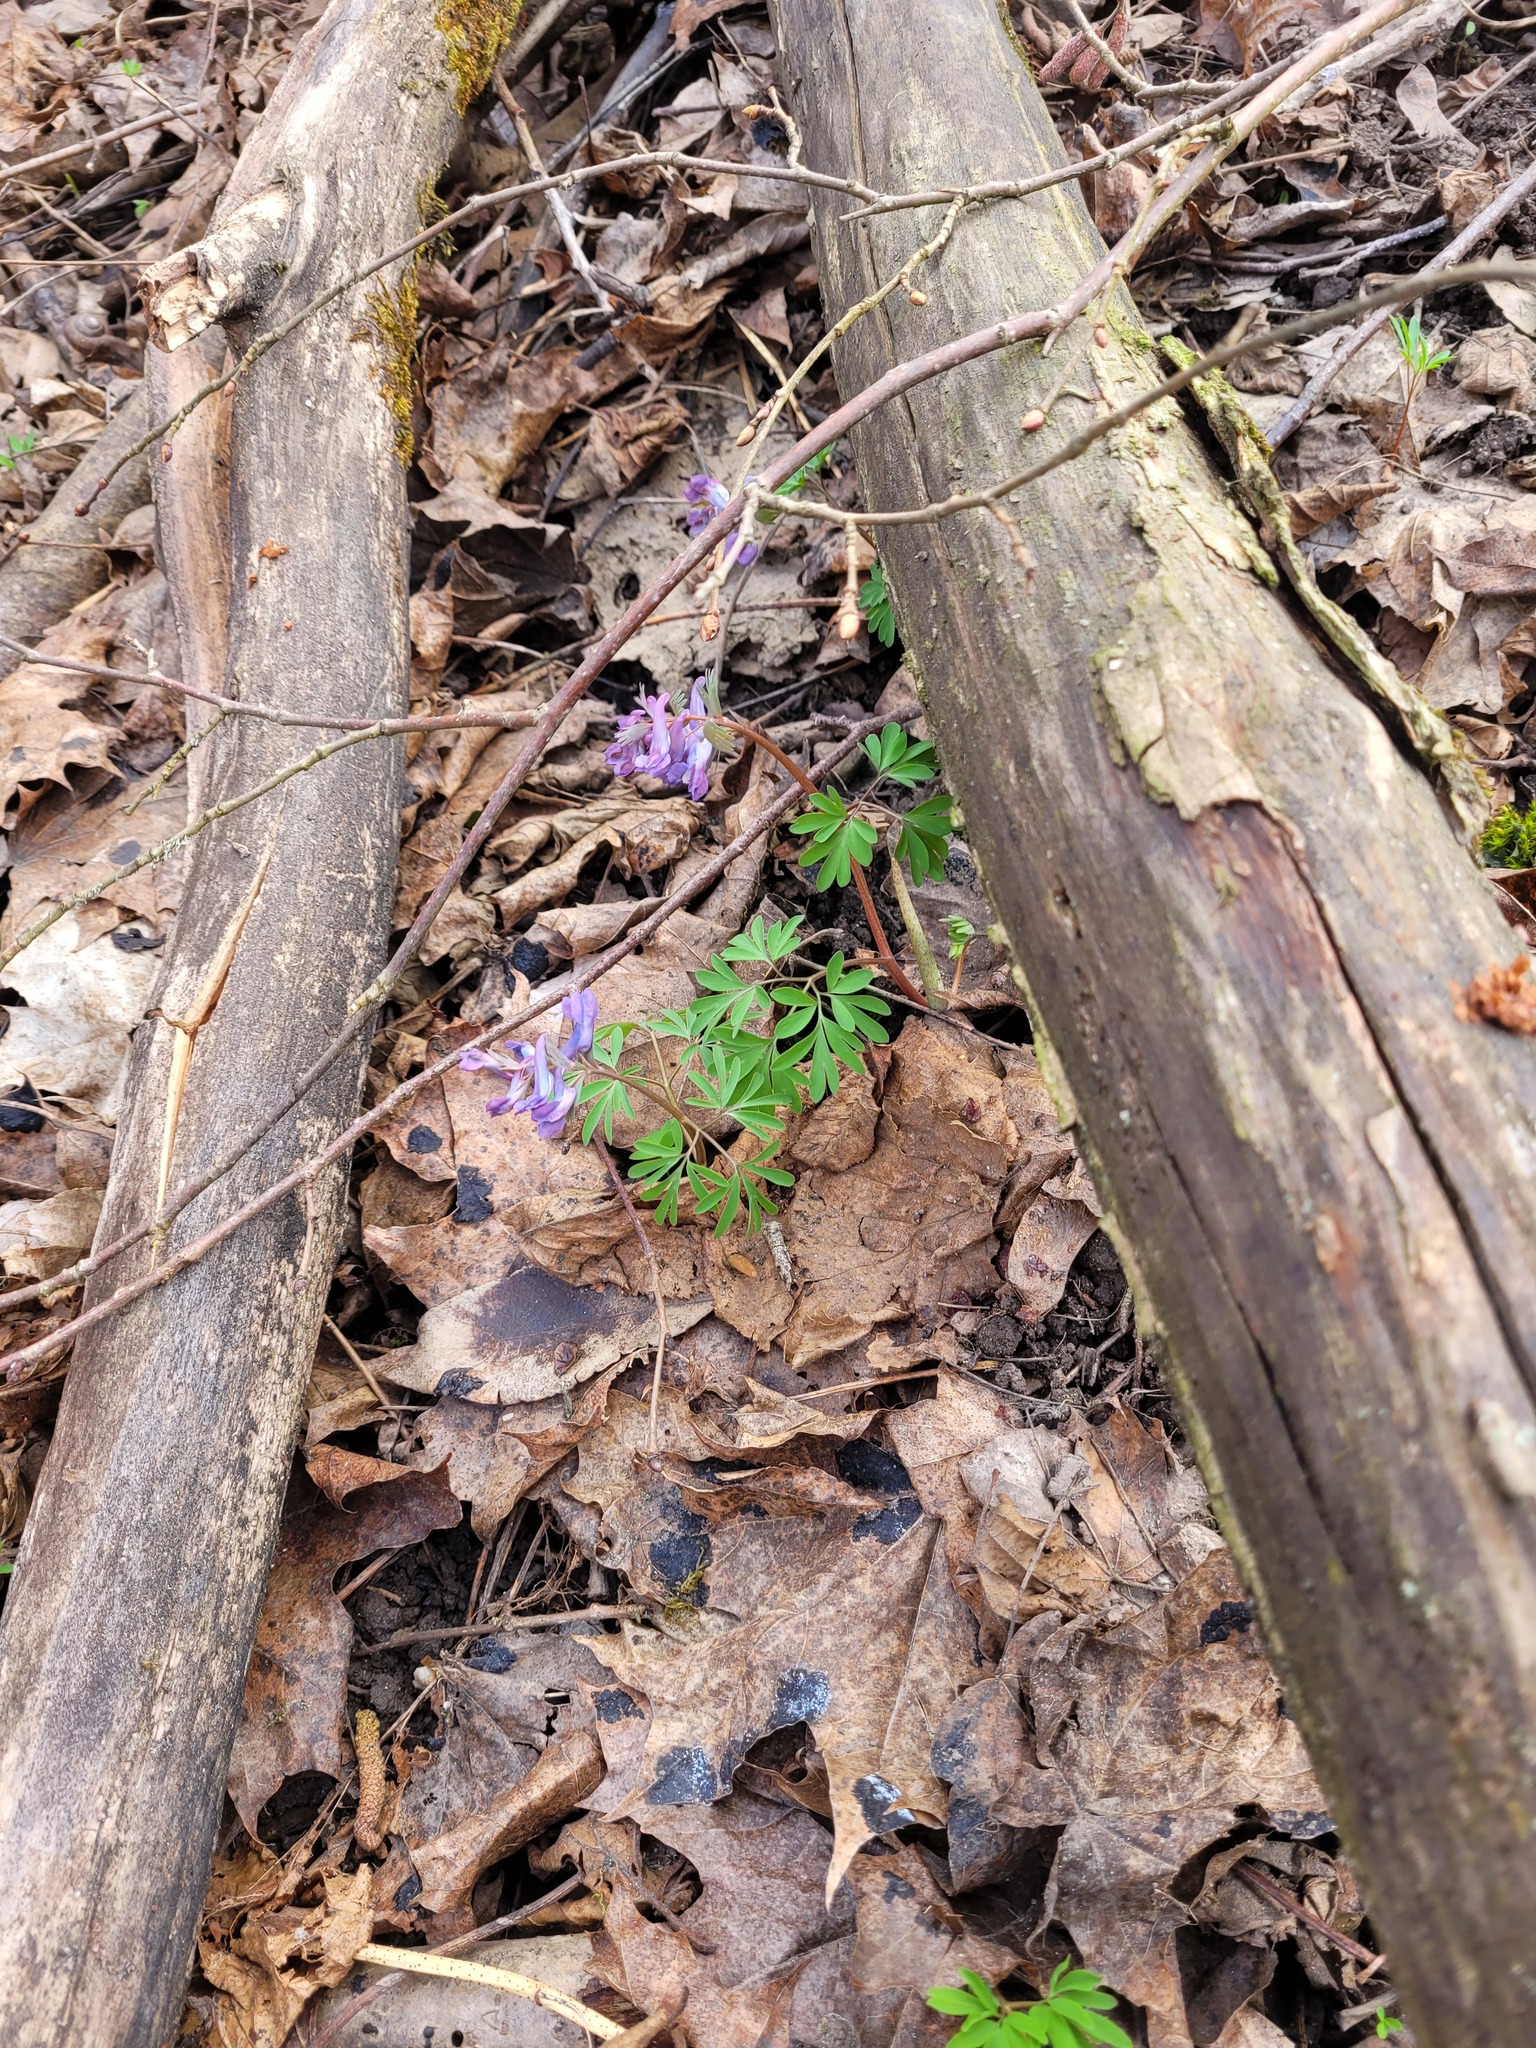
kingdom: Plantae
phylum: Tracheophyta
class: Magnoliopsida
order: Ranunculales
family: Papaveraceae
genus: Corydalis
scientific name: Corydalis solida
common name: Bird-in-a-bush
